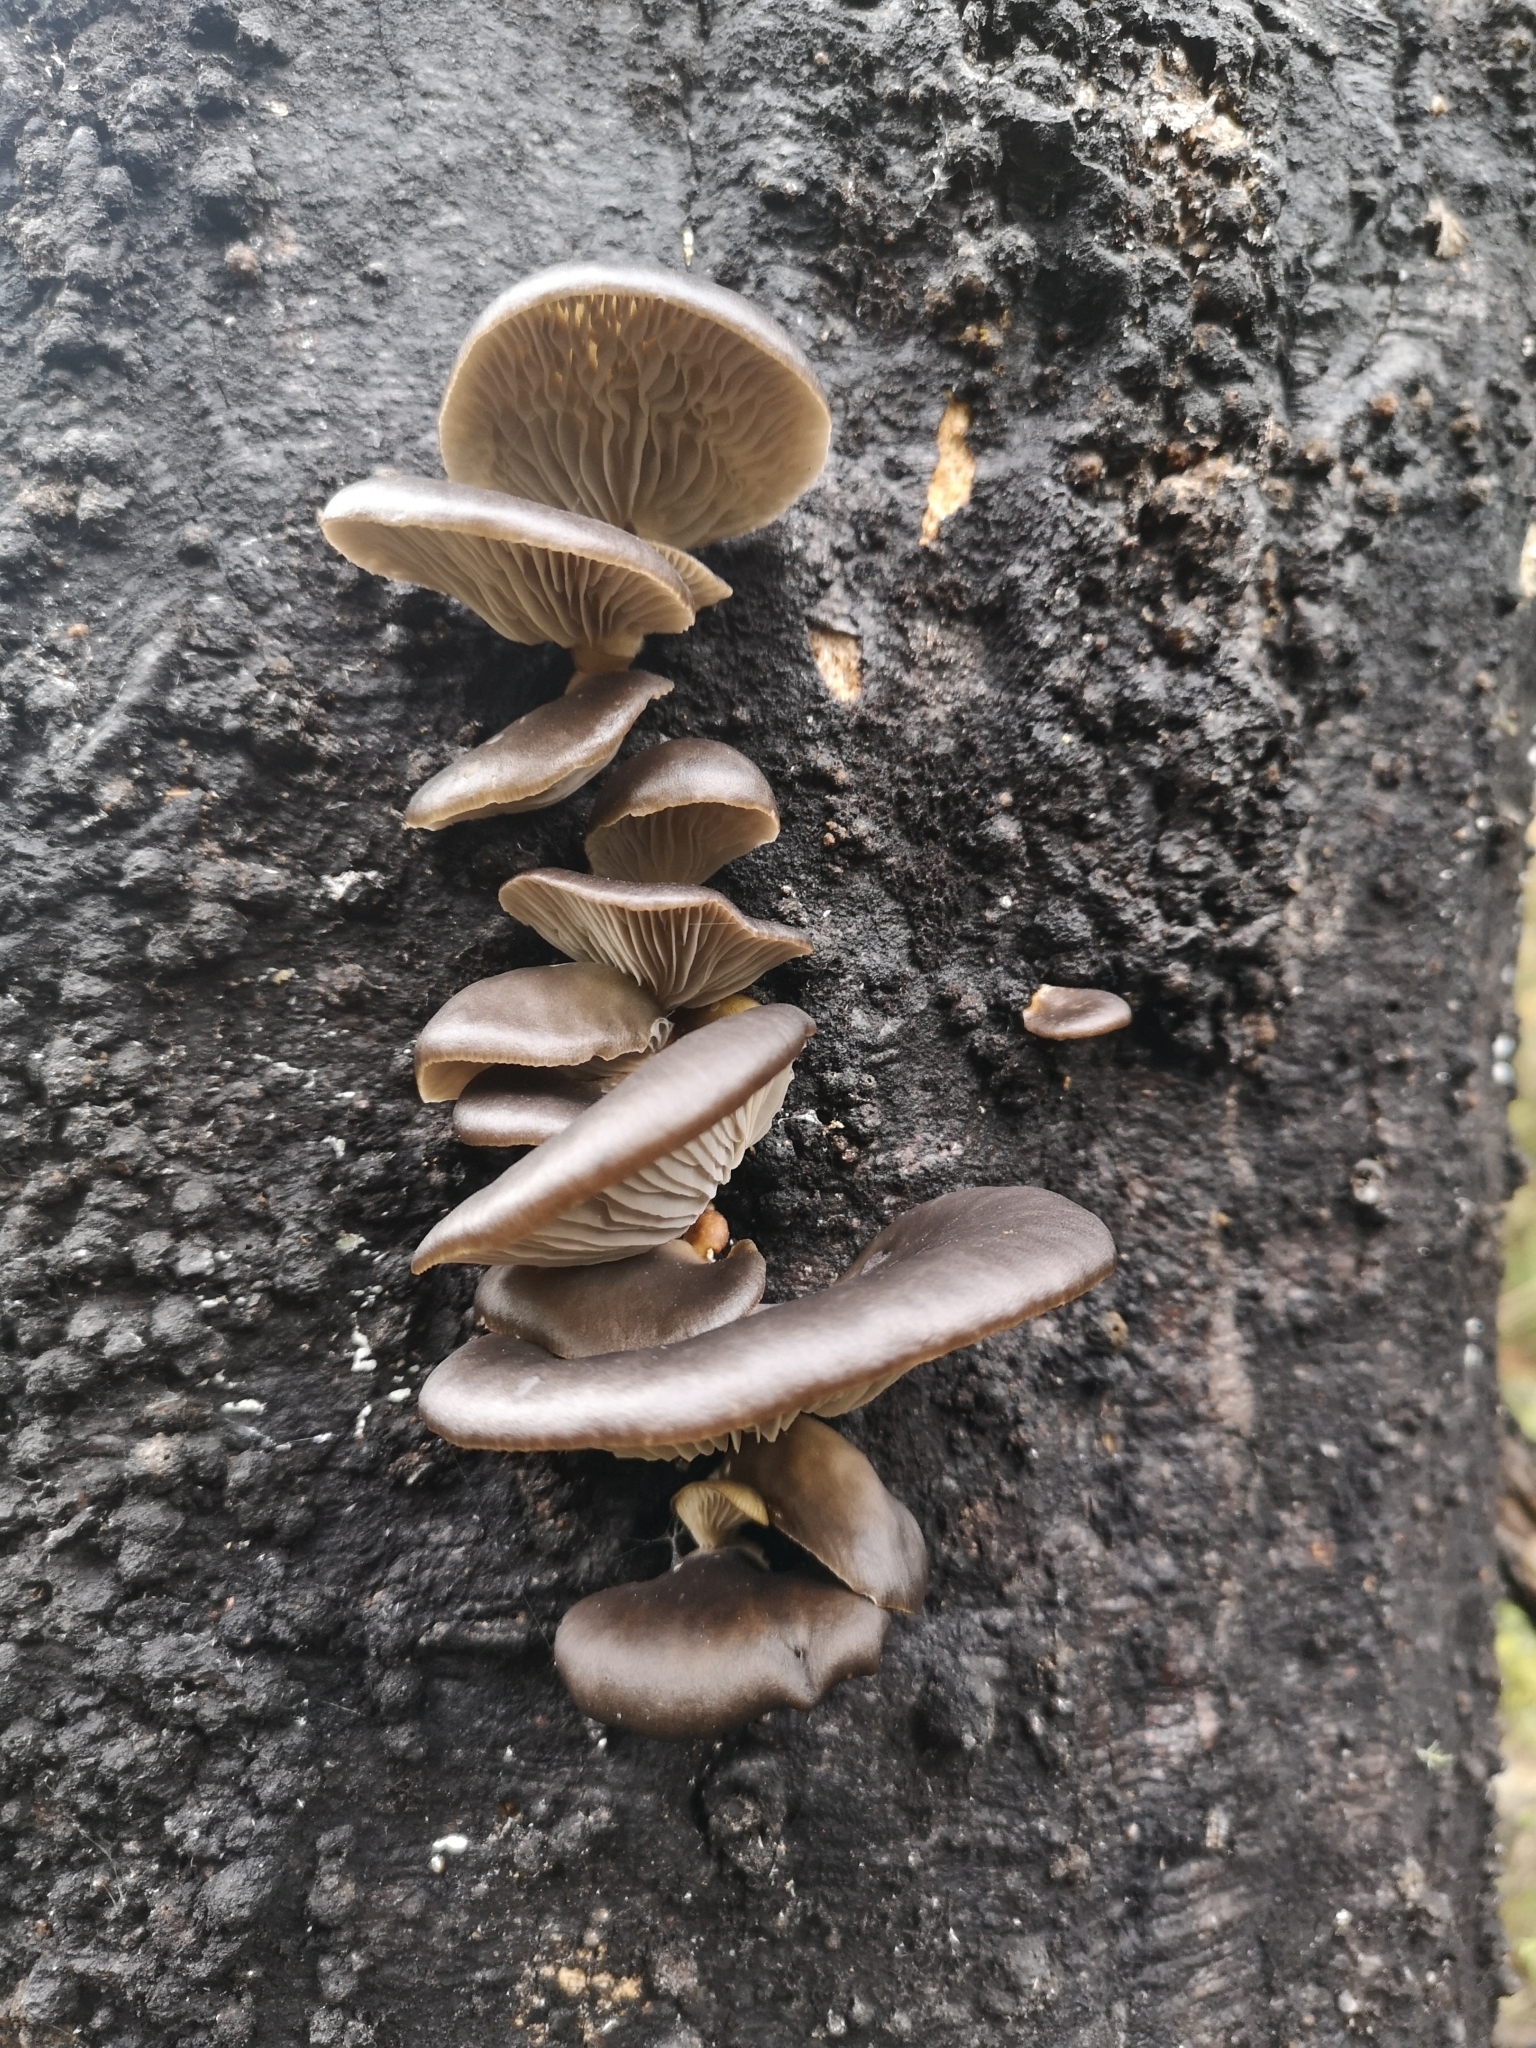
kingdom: Fungi
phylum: Basidiomycota
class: Agaricomycetes
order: Agaricales
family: Pleurotaceae
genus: Pleurotus
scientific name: Pleurotus purpureo-olivaceus
